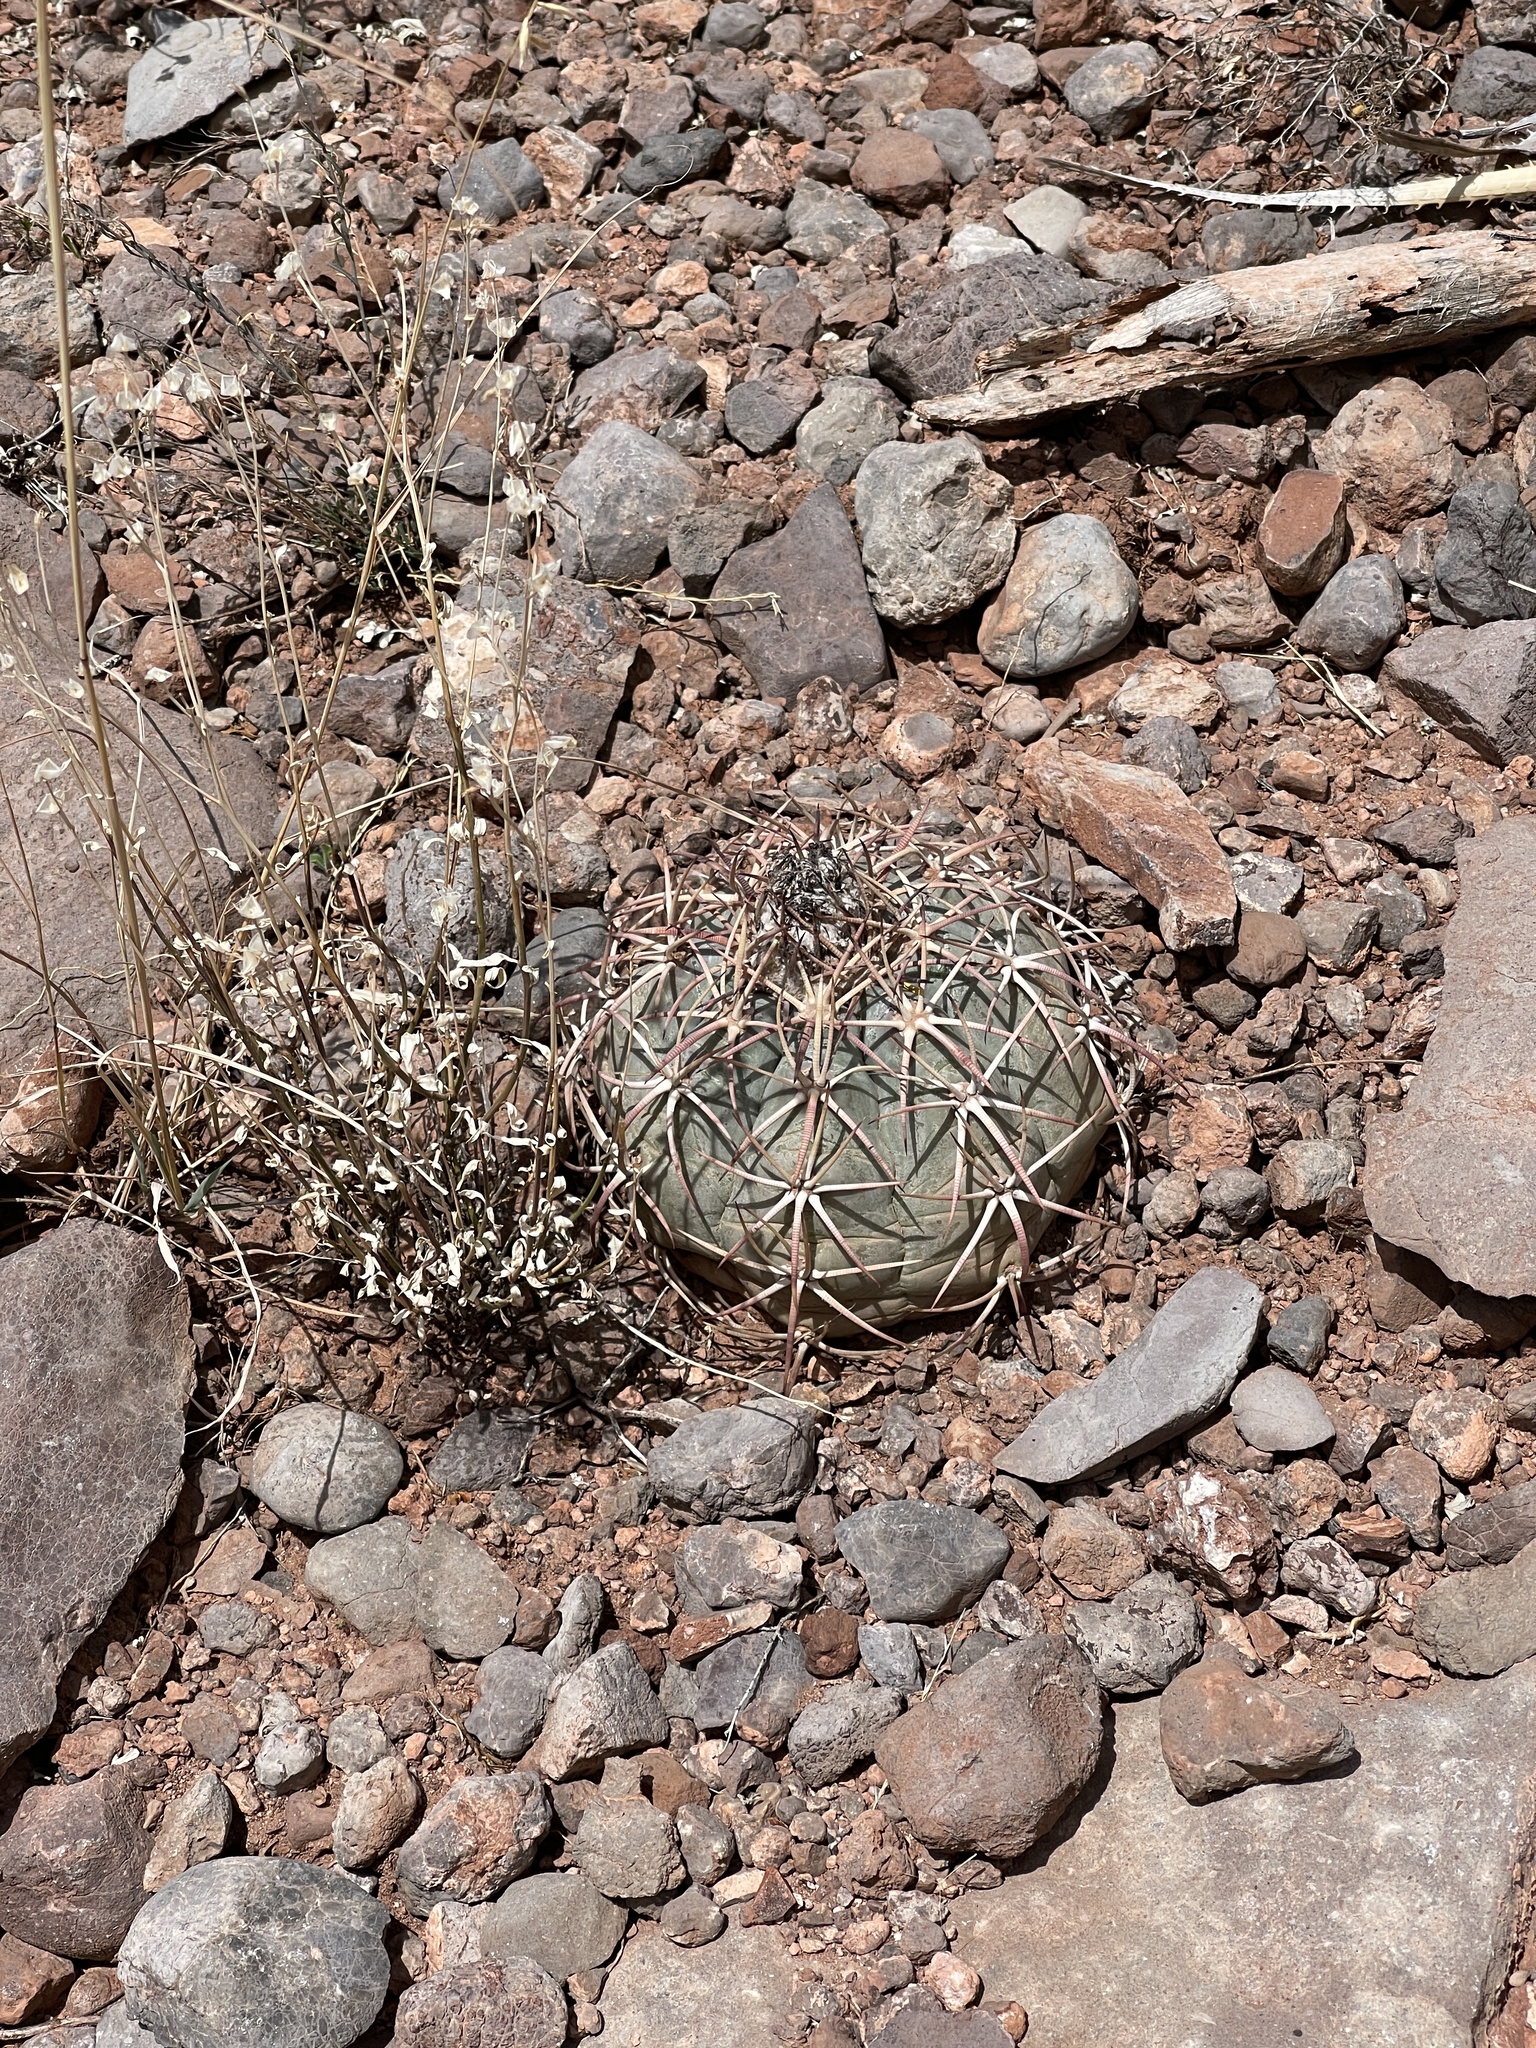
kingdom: Plantae
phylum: Tracheophyta
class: Magnoliopsida
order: Caryophyllales
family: Cactaceae
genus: Echinocactus
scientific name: Echinocactus horizonthalonius
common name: Devilshead
